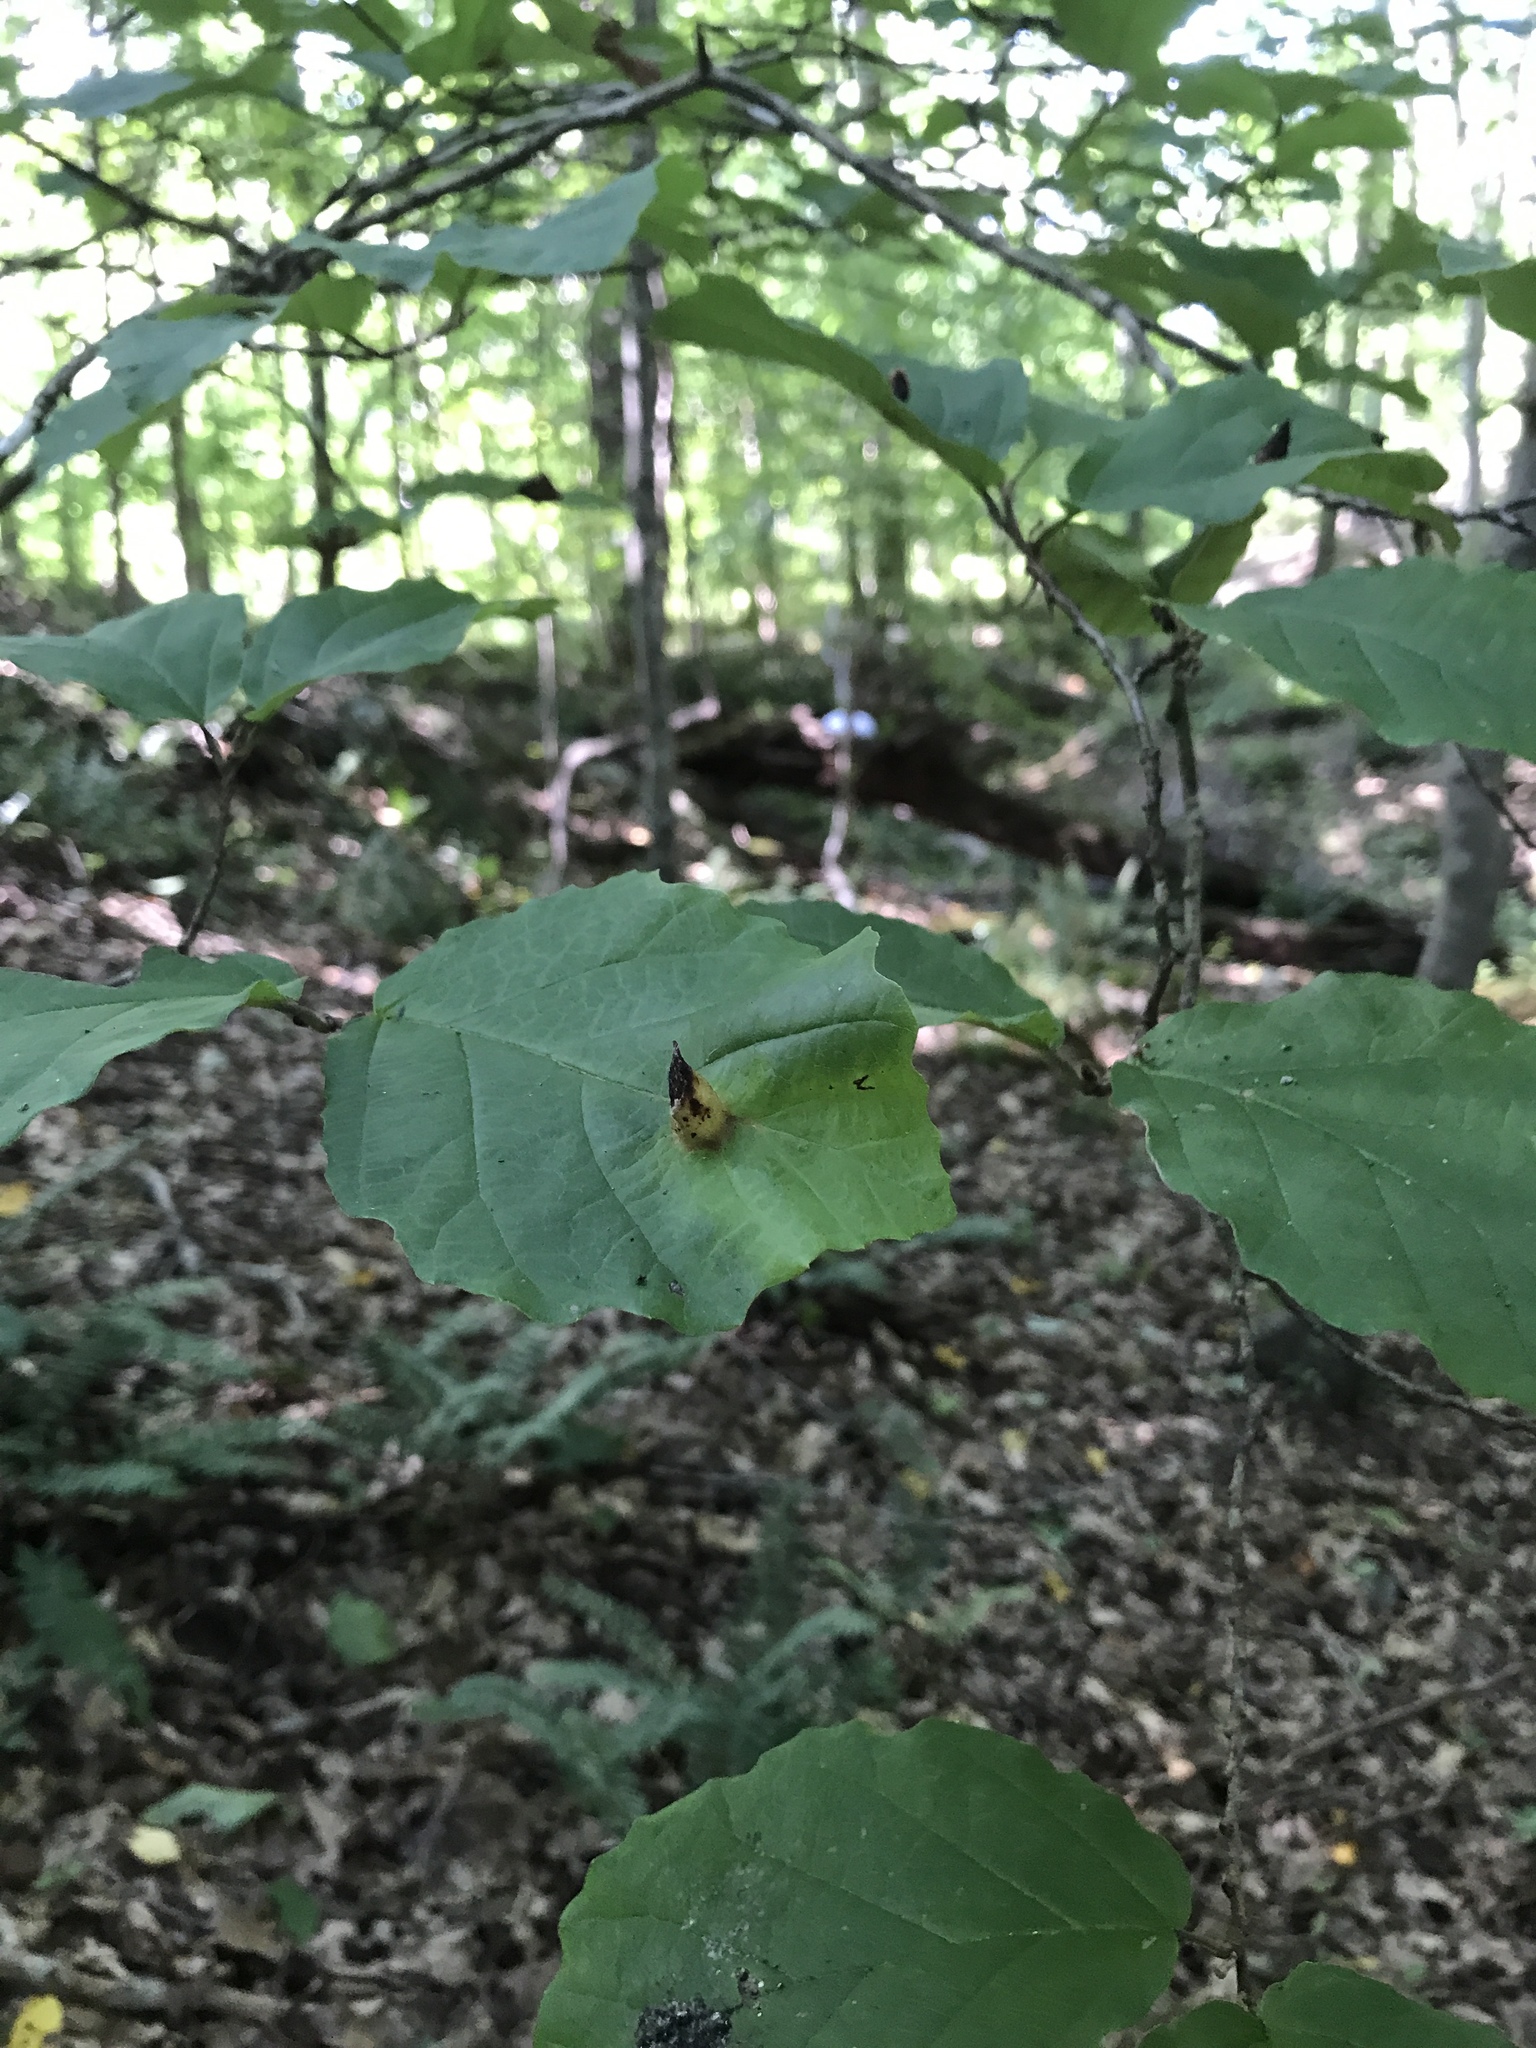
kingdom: Plantae
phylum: Tracheophyta
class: Magnoliopsida
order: Saxifragales
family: Hamamelidaceae
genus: Hamamelis
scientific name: Hamamelis virginiana
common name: Witch-hazel
